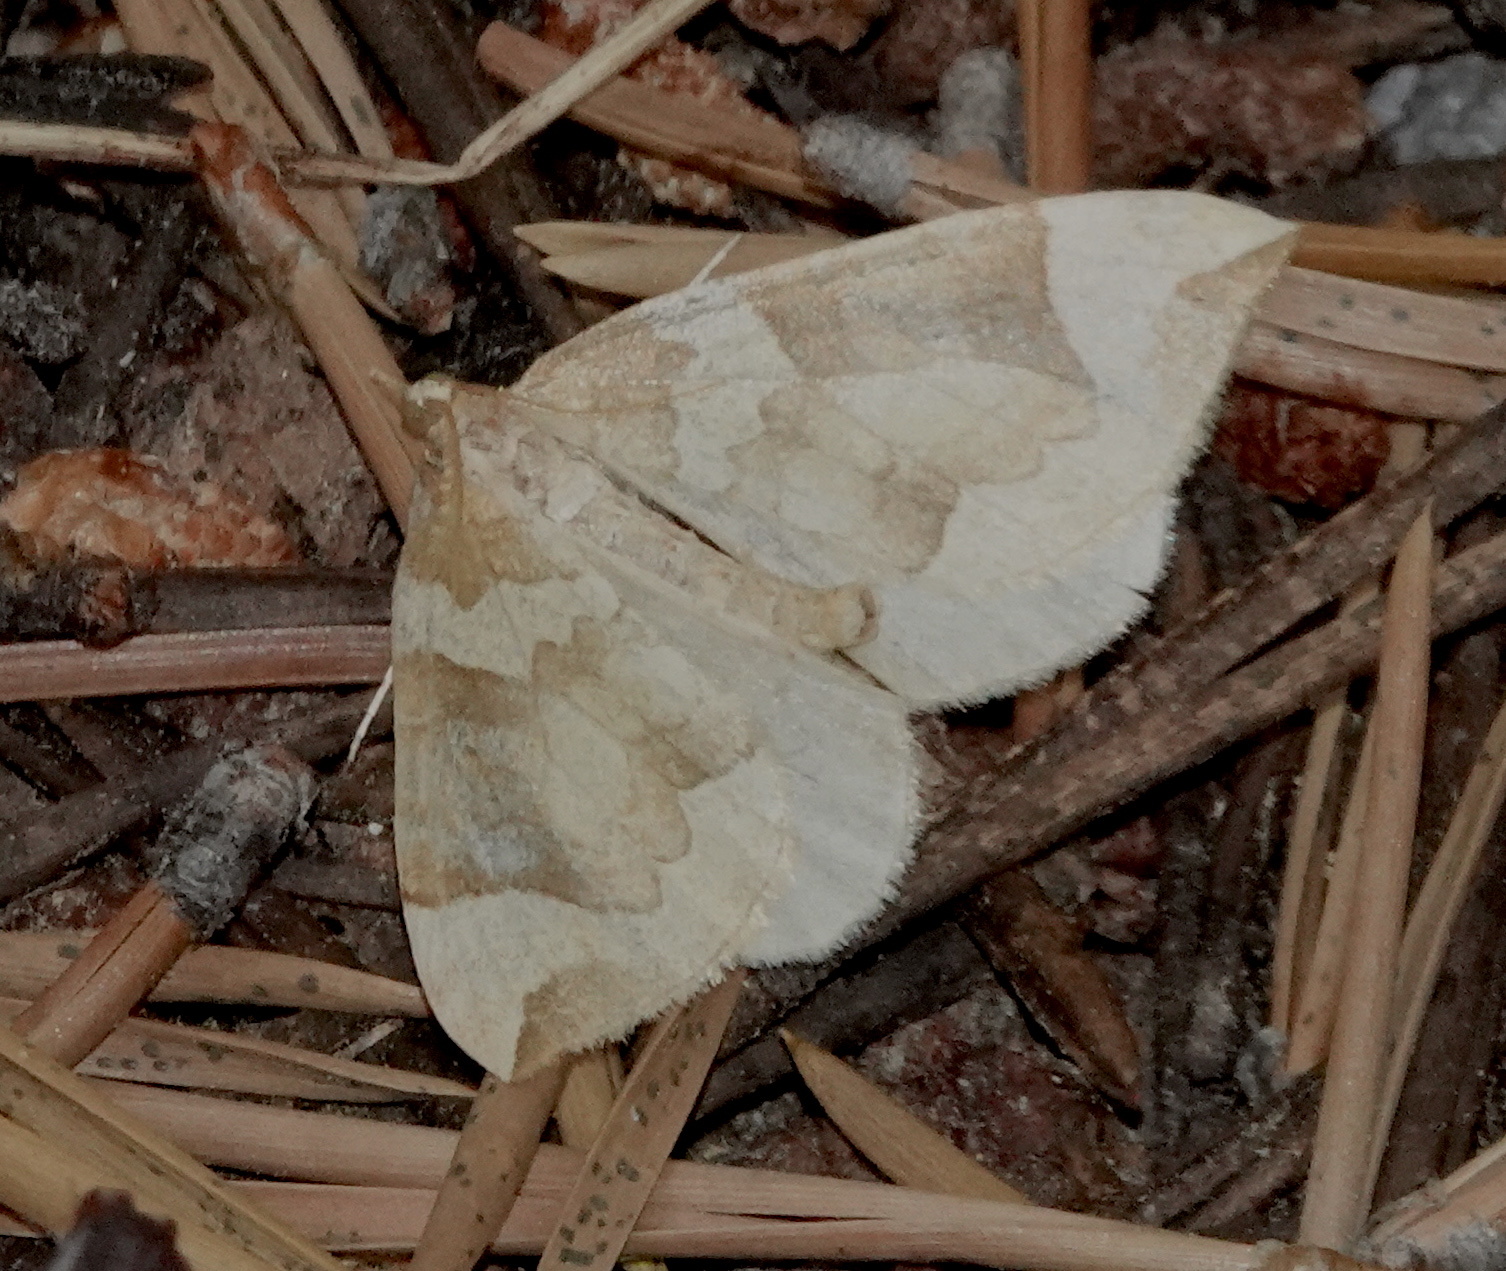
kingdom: Animalia
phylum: Arthropoda
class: Insecta
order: Lepidoptera
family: Geometridae
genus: Eulithis
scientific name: Eulithis propulsata
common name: Currant eulithis moth
